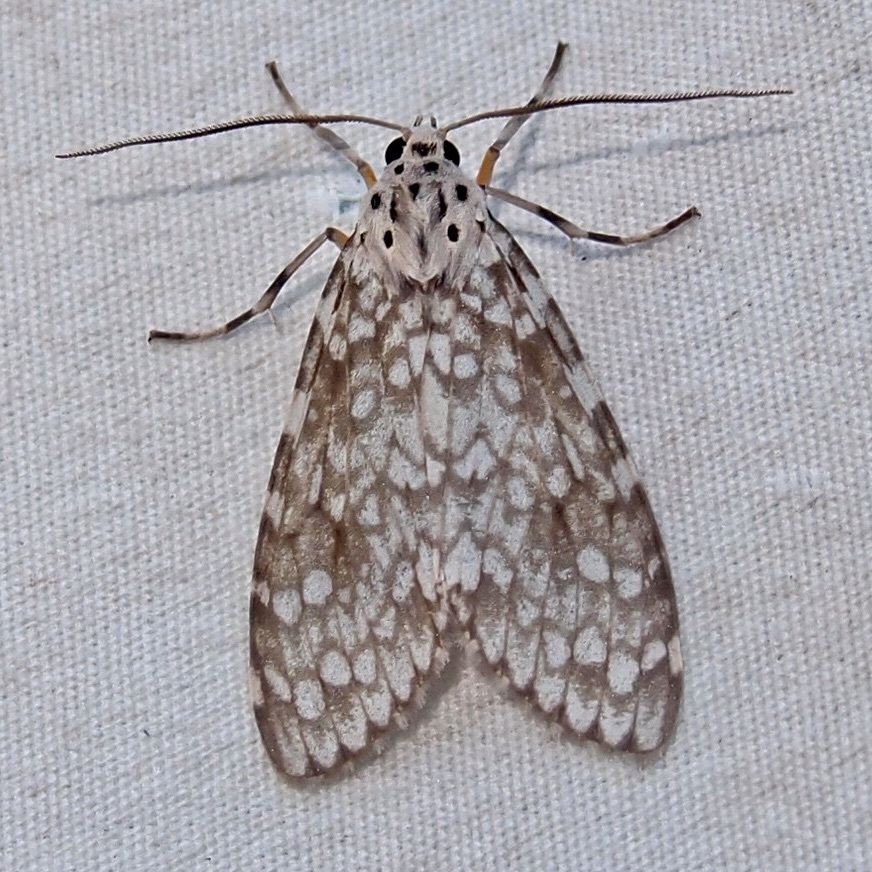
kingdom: Animalia
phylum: Arthropoda
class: Insecta
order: Lepidoptera
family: Erebidae
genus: Carales
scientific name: Carales arizonensis
